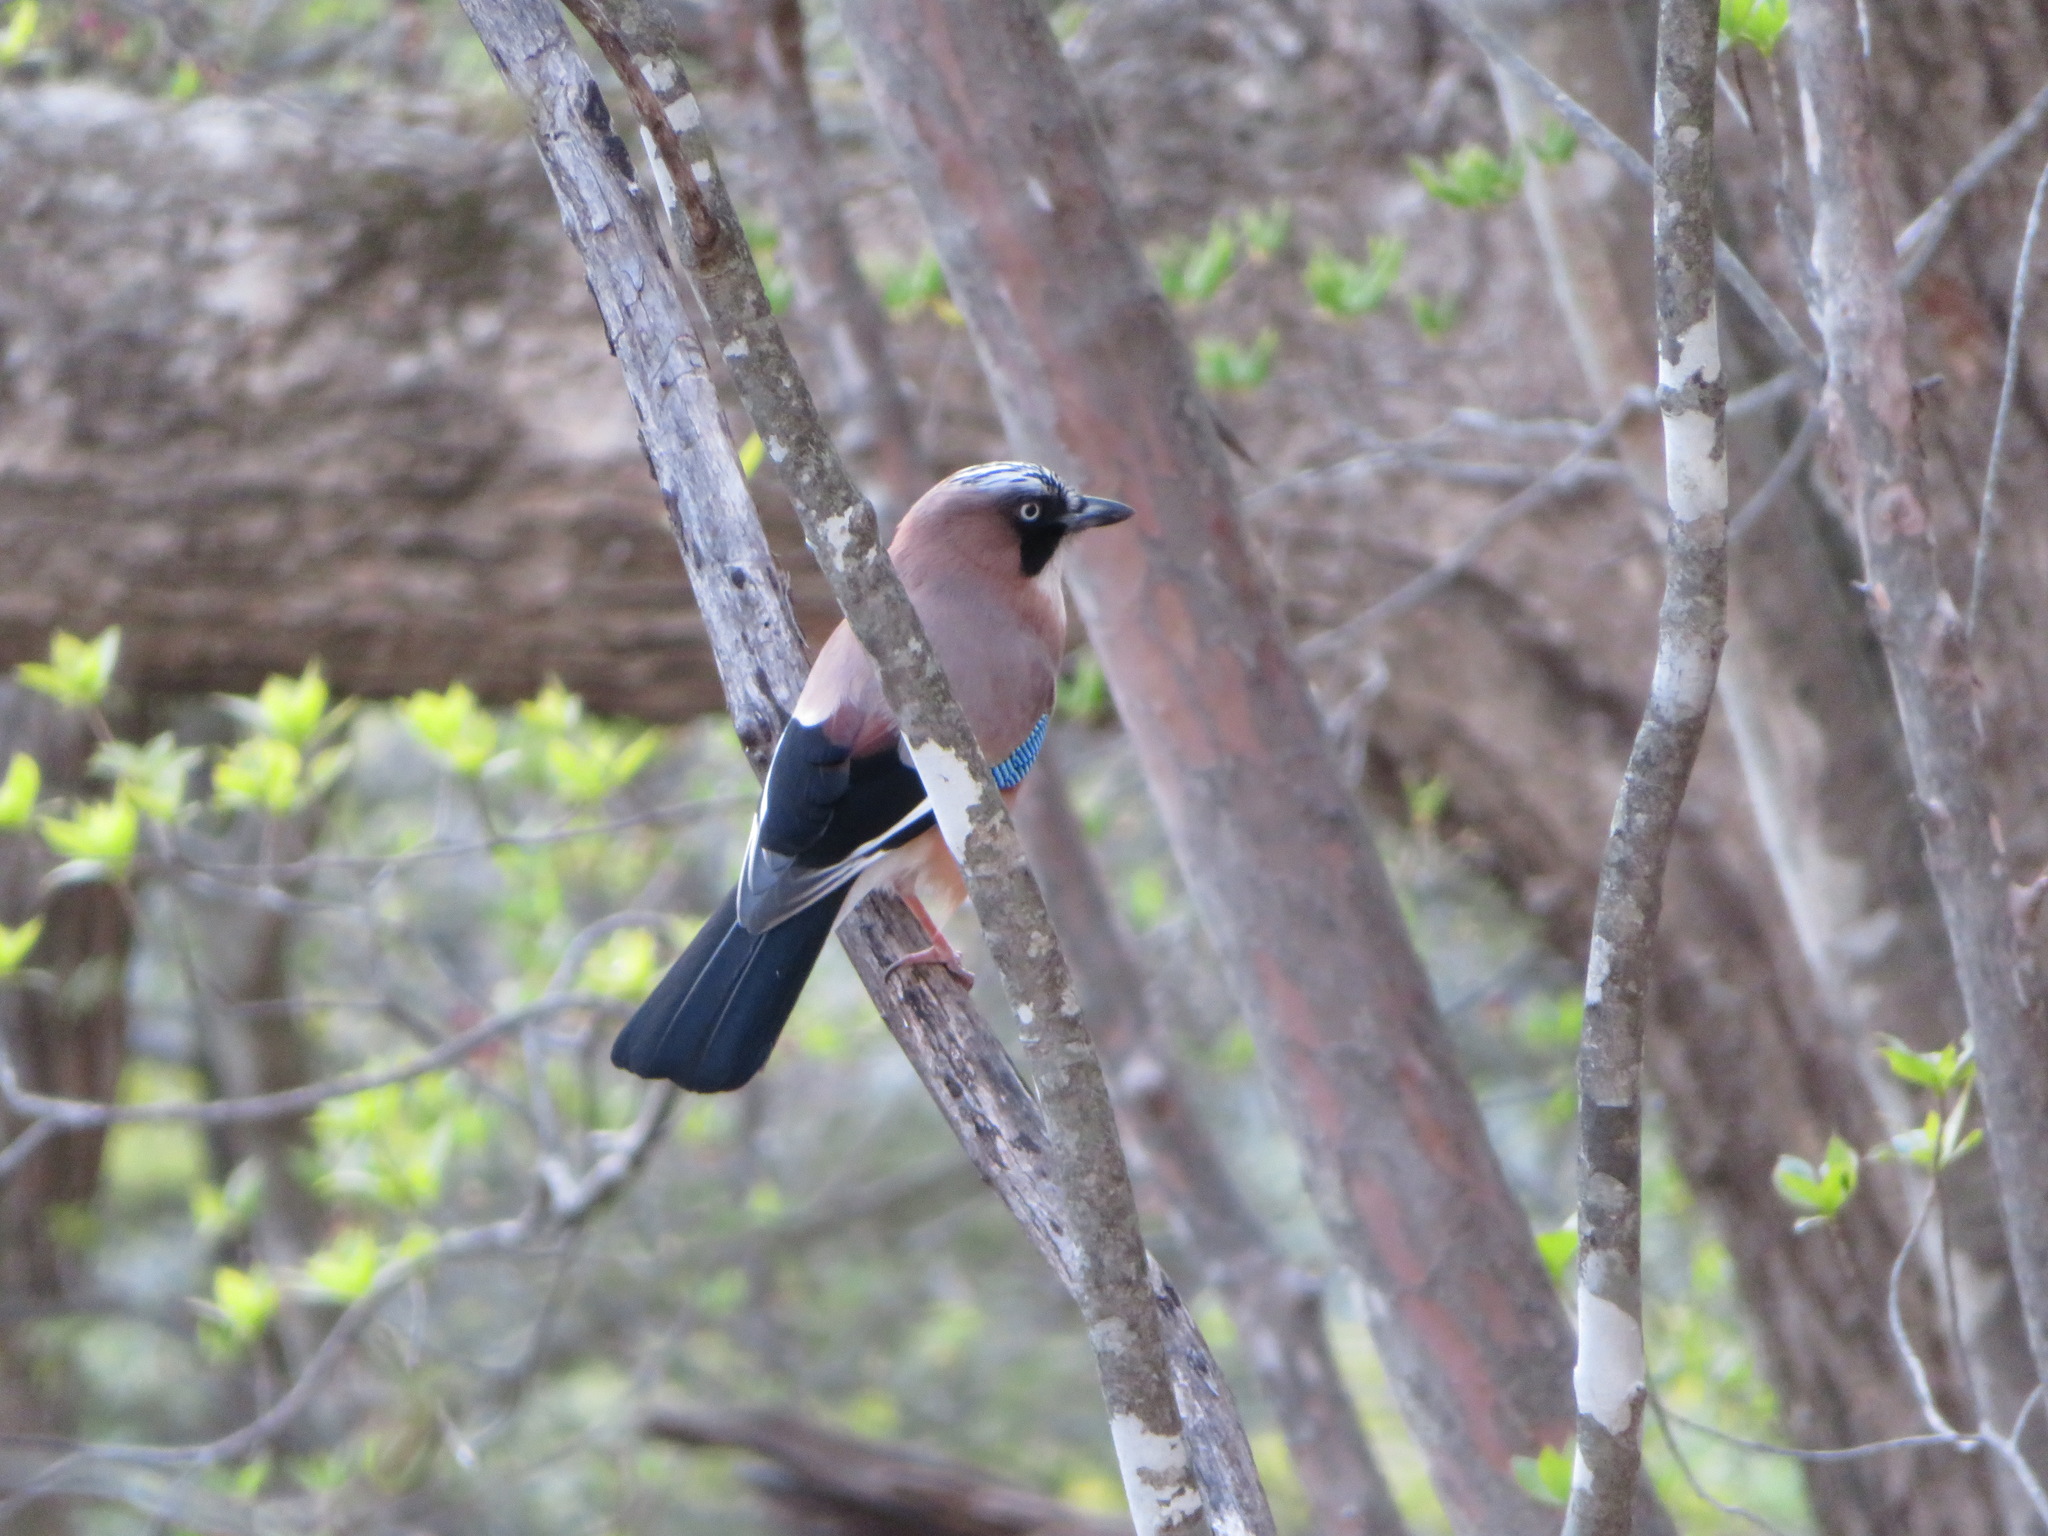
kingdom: Animalia
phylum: Chordata
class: Aves
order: Passeriformes
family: Corvidae
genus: Garrulus
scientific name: Garrulus glandarius
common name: Eurasian jay
